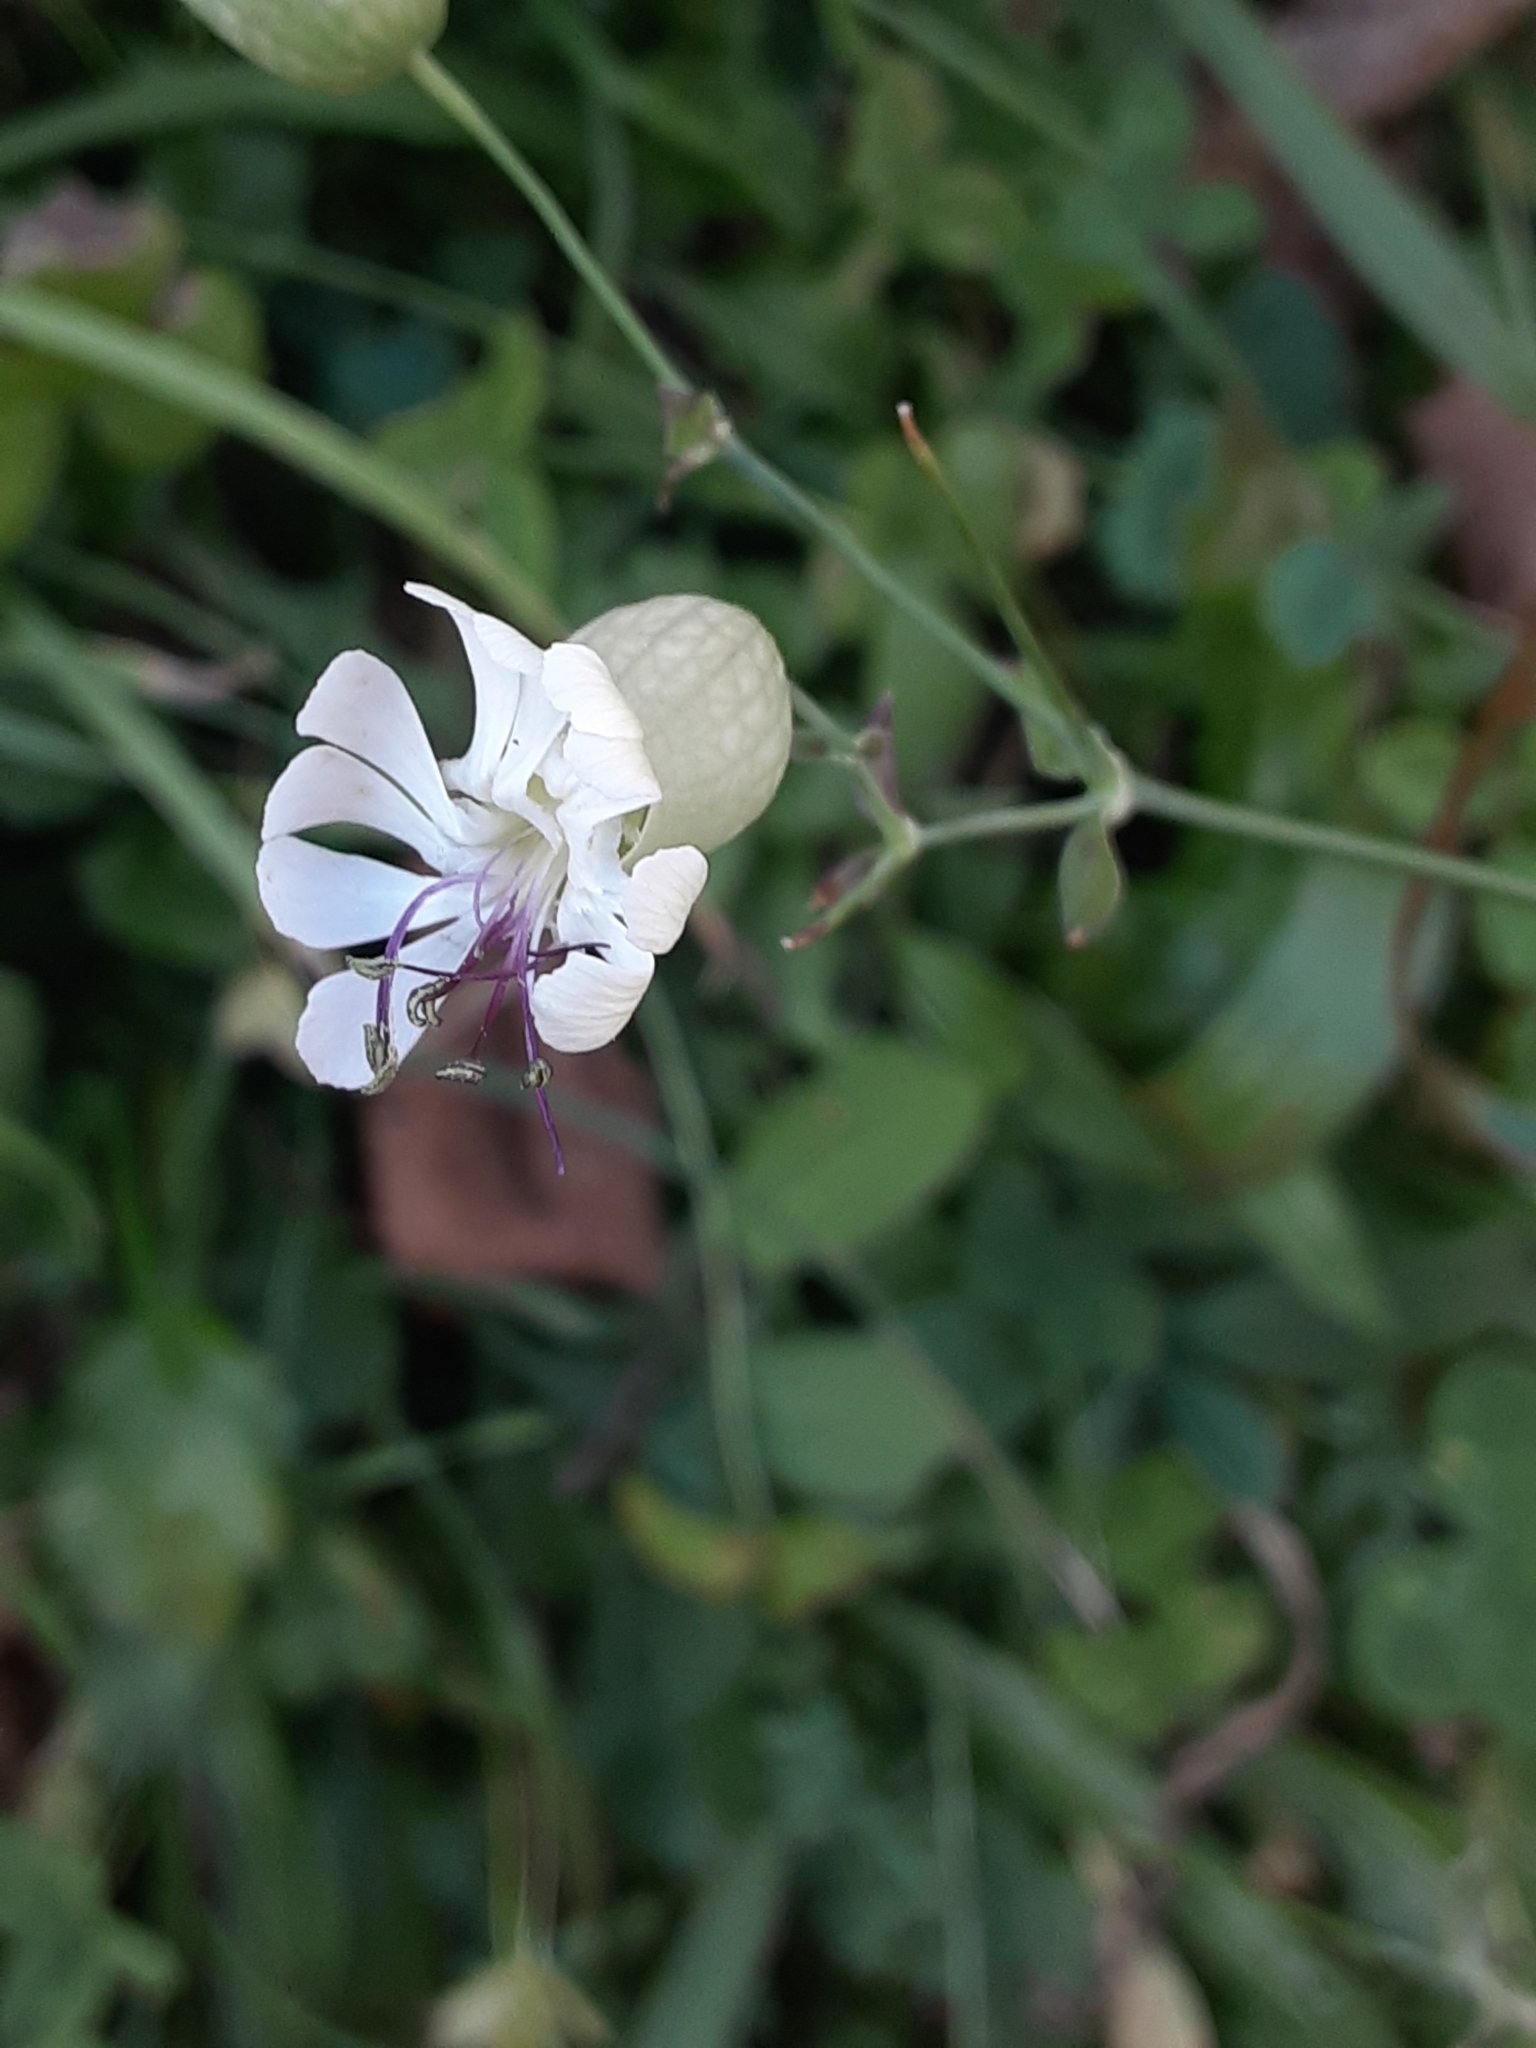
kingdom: Plantae
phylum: Tracheophyta
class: Magnoliopsida
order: Caryophyllales
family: Caryophyllaceae
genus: Silene
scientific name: Silene vulgaris
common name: Bladder campion
